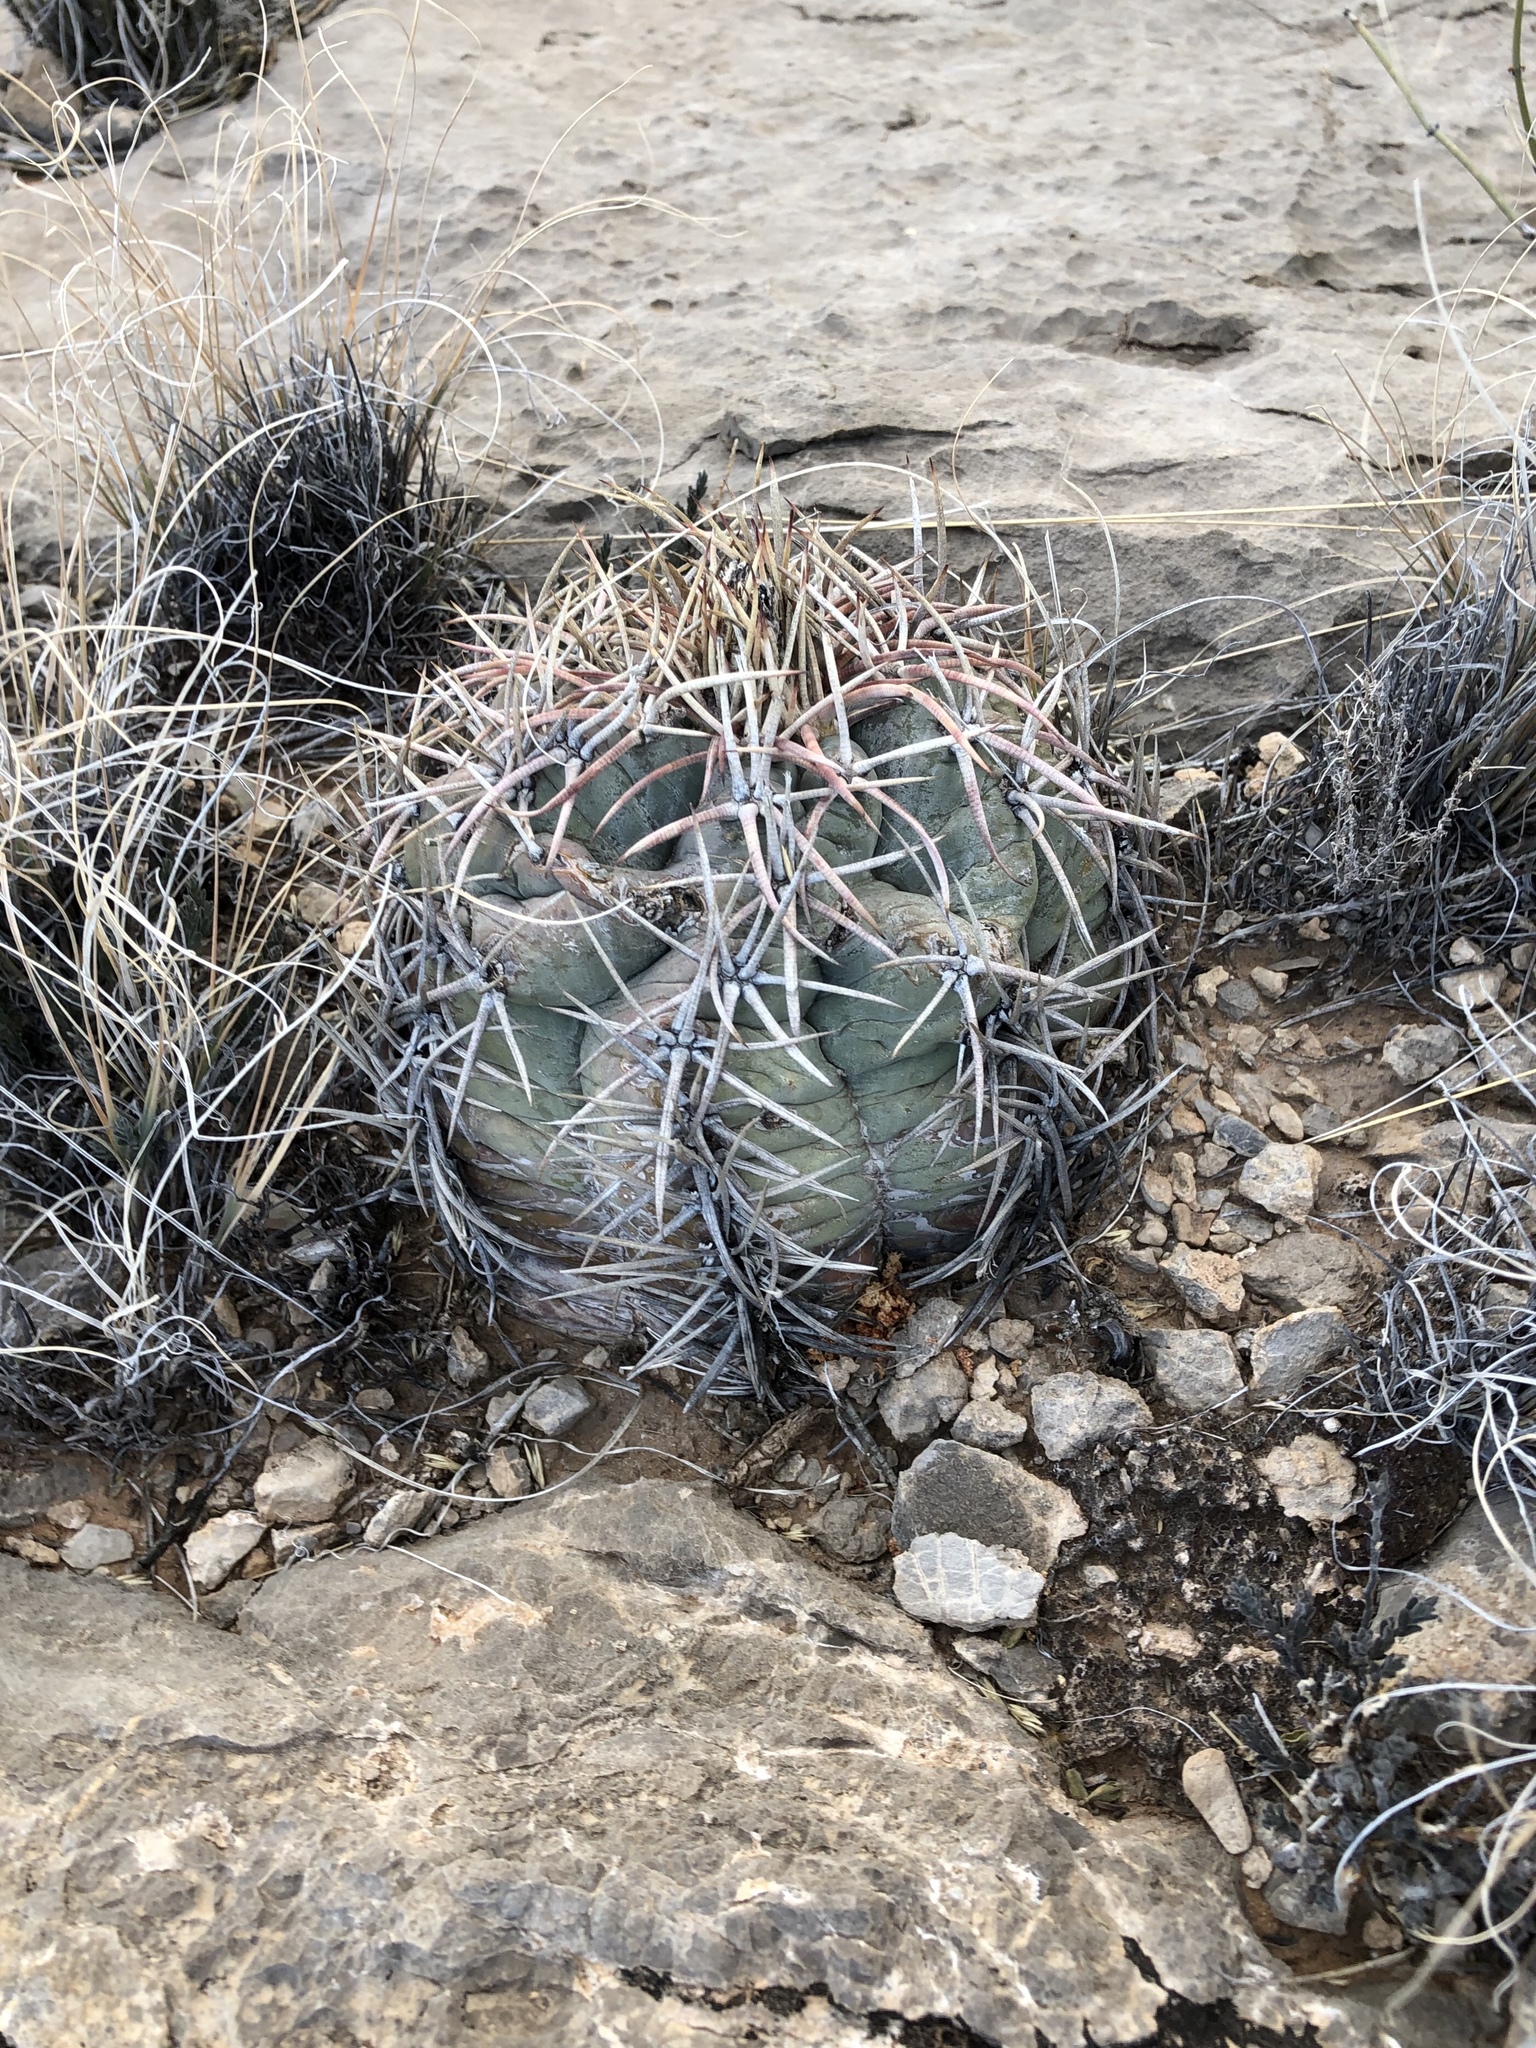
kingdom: Plantae
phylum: Tracheophyta
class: Magnoliopsida
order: Caryophyllales
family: Cactaceae
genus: Echinocactus
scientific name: Echinocactus horizonthalonius
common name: Devilshead
